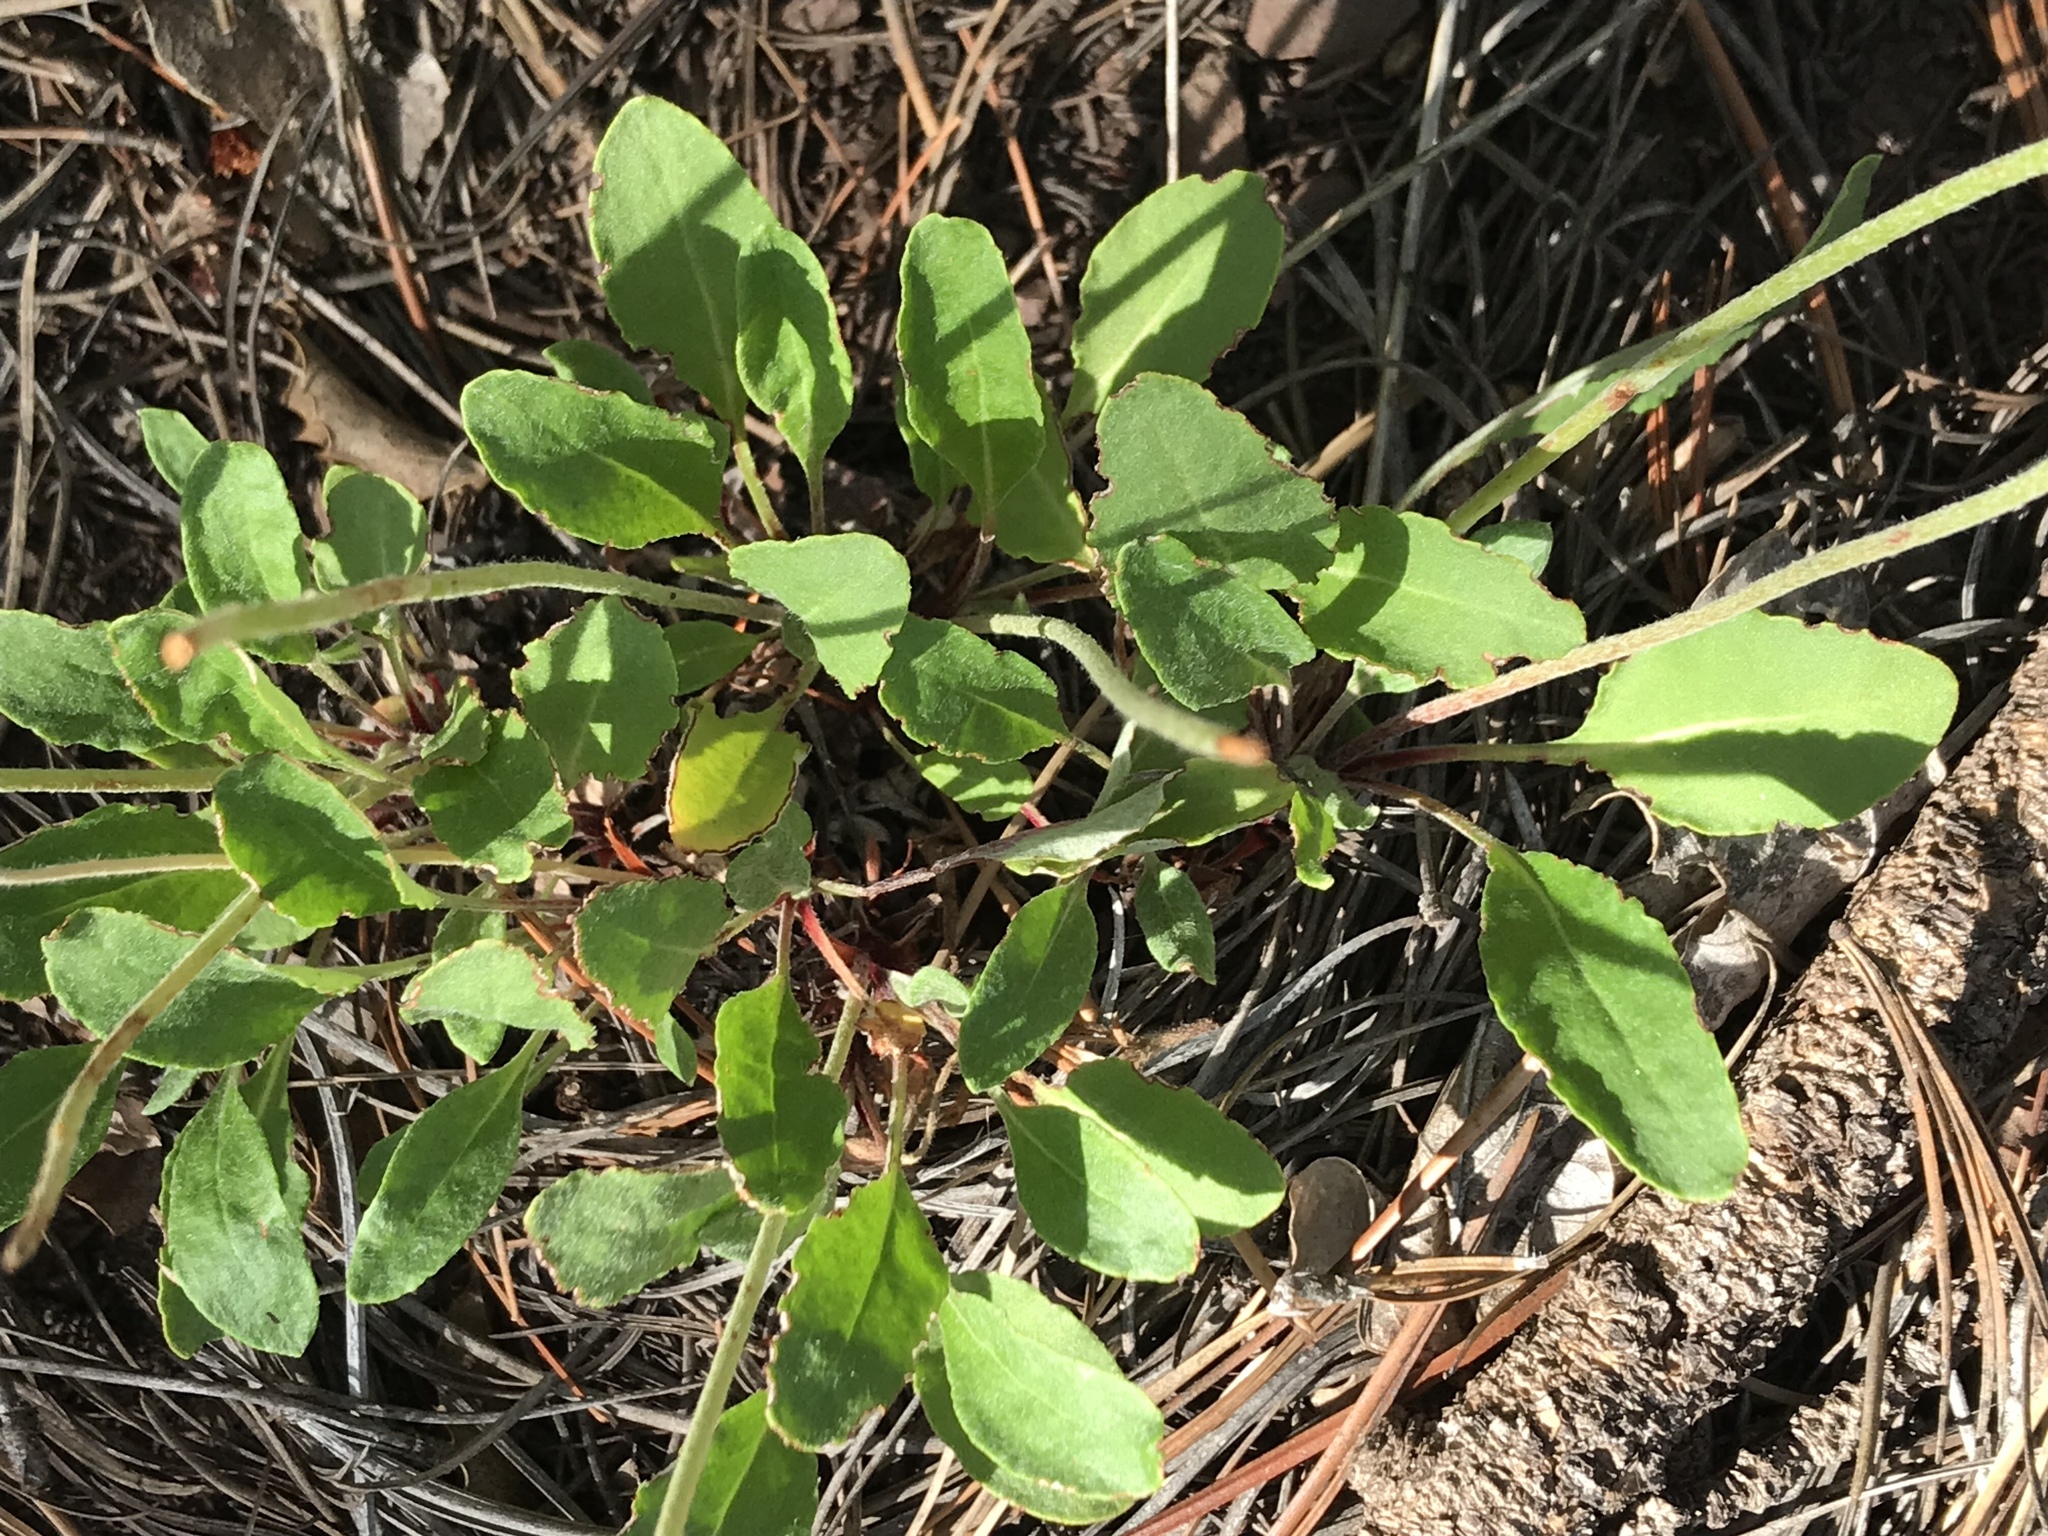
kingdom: Plantae
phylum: Tracheophyta
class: Magnoliopsida
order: Caryophyllales
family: Polygonaceae
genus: Eriogonum
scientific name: Eriogonum jamesii
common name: Antelope-sage
